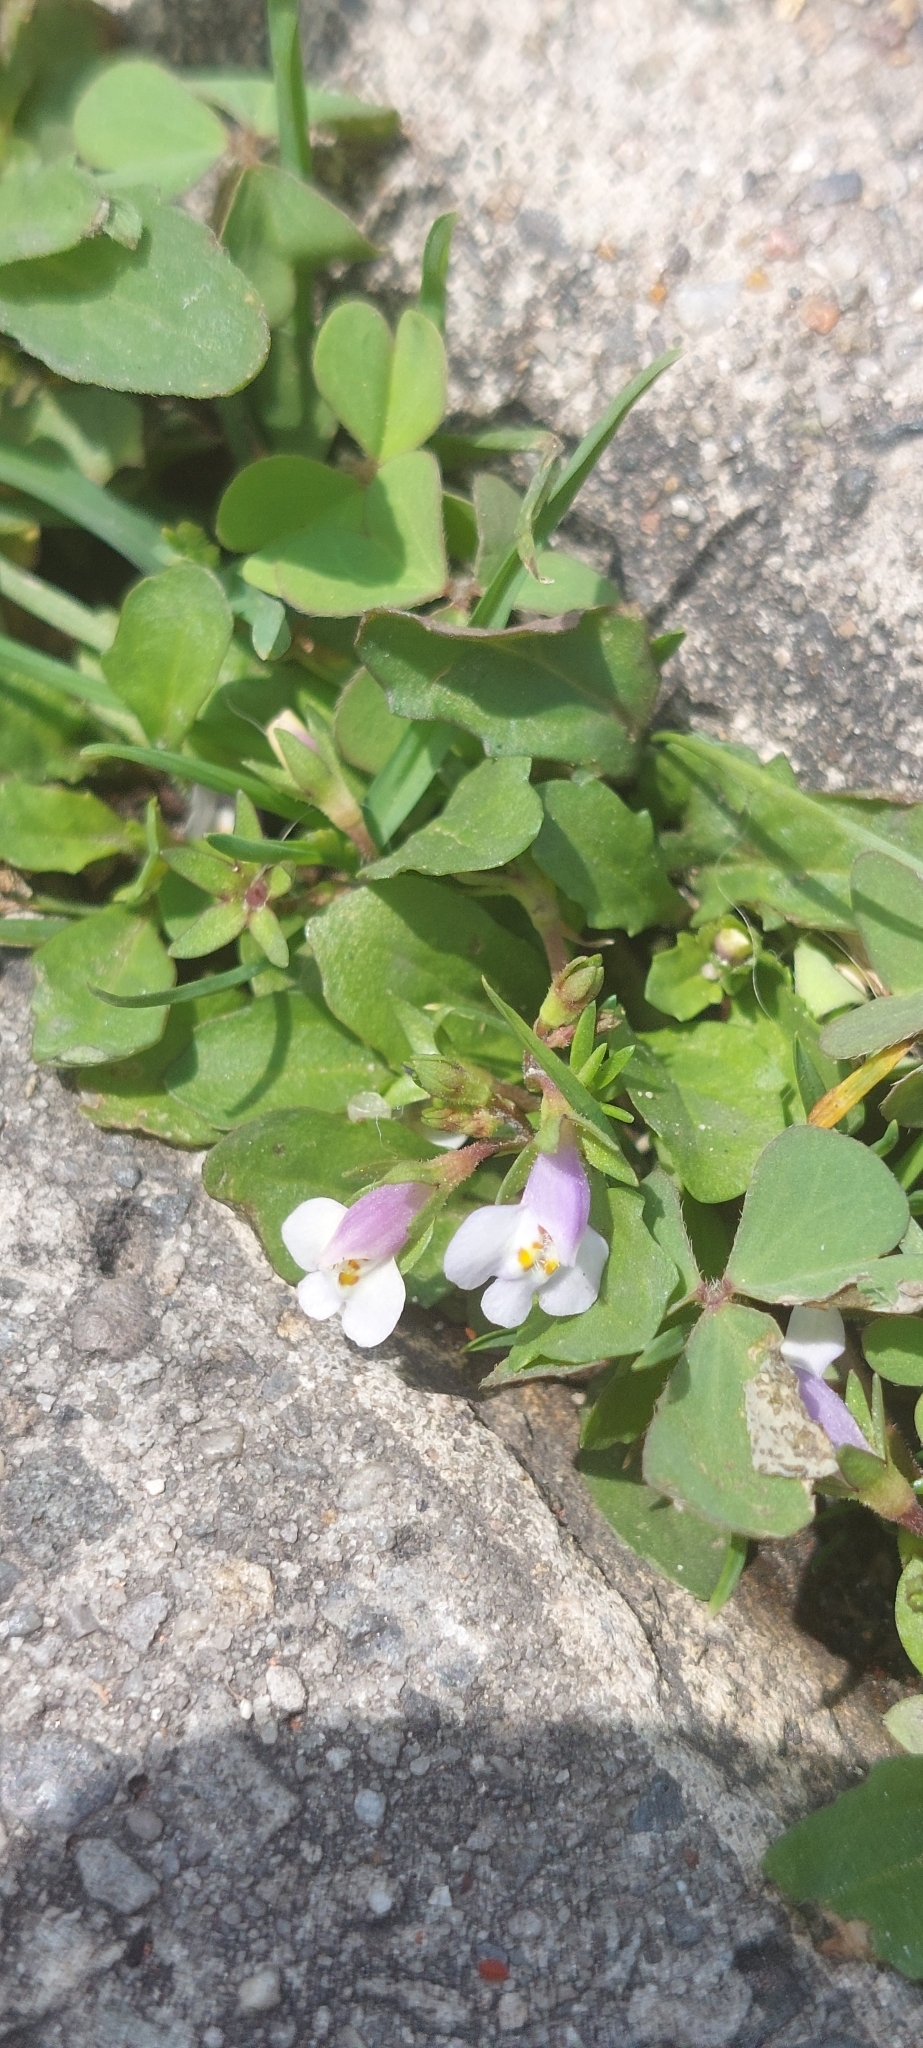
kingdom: Plantae
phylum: Tracheophyta
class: Magnoliopsida
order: Lamiales
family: Mazaceae
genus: Mazus
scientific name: Mazus pumilus
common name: Japanese mazus
